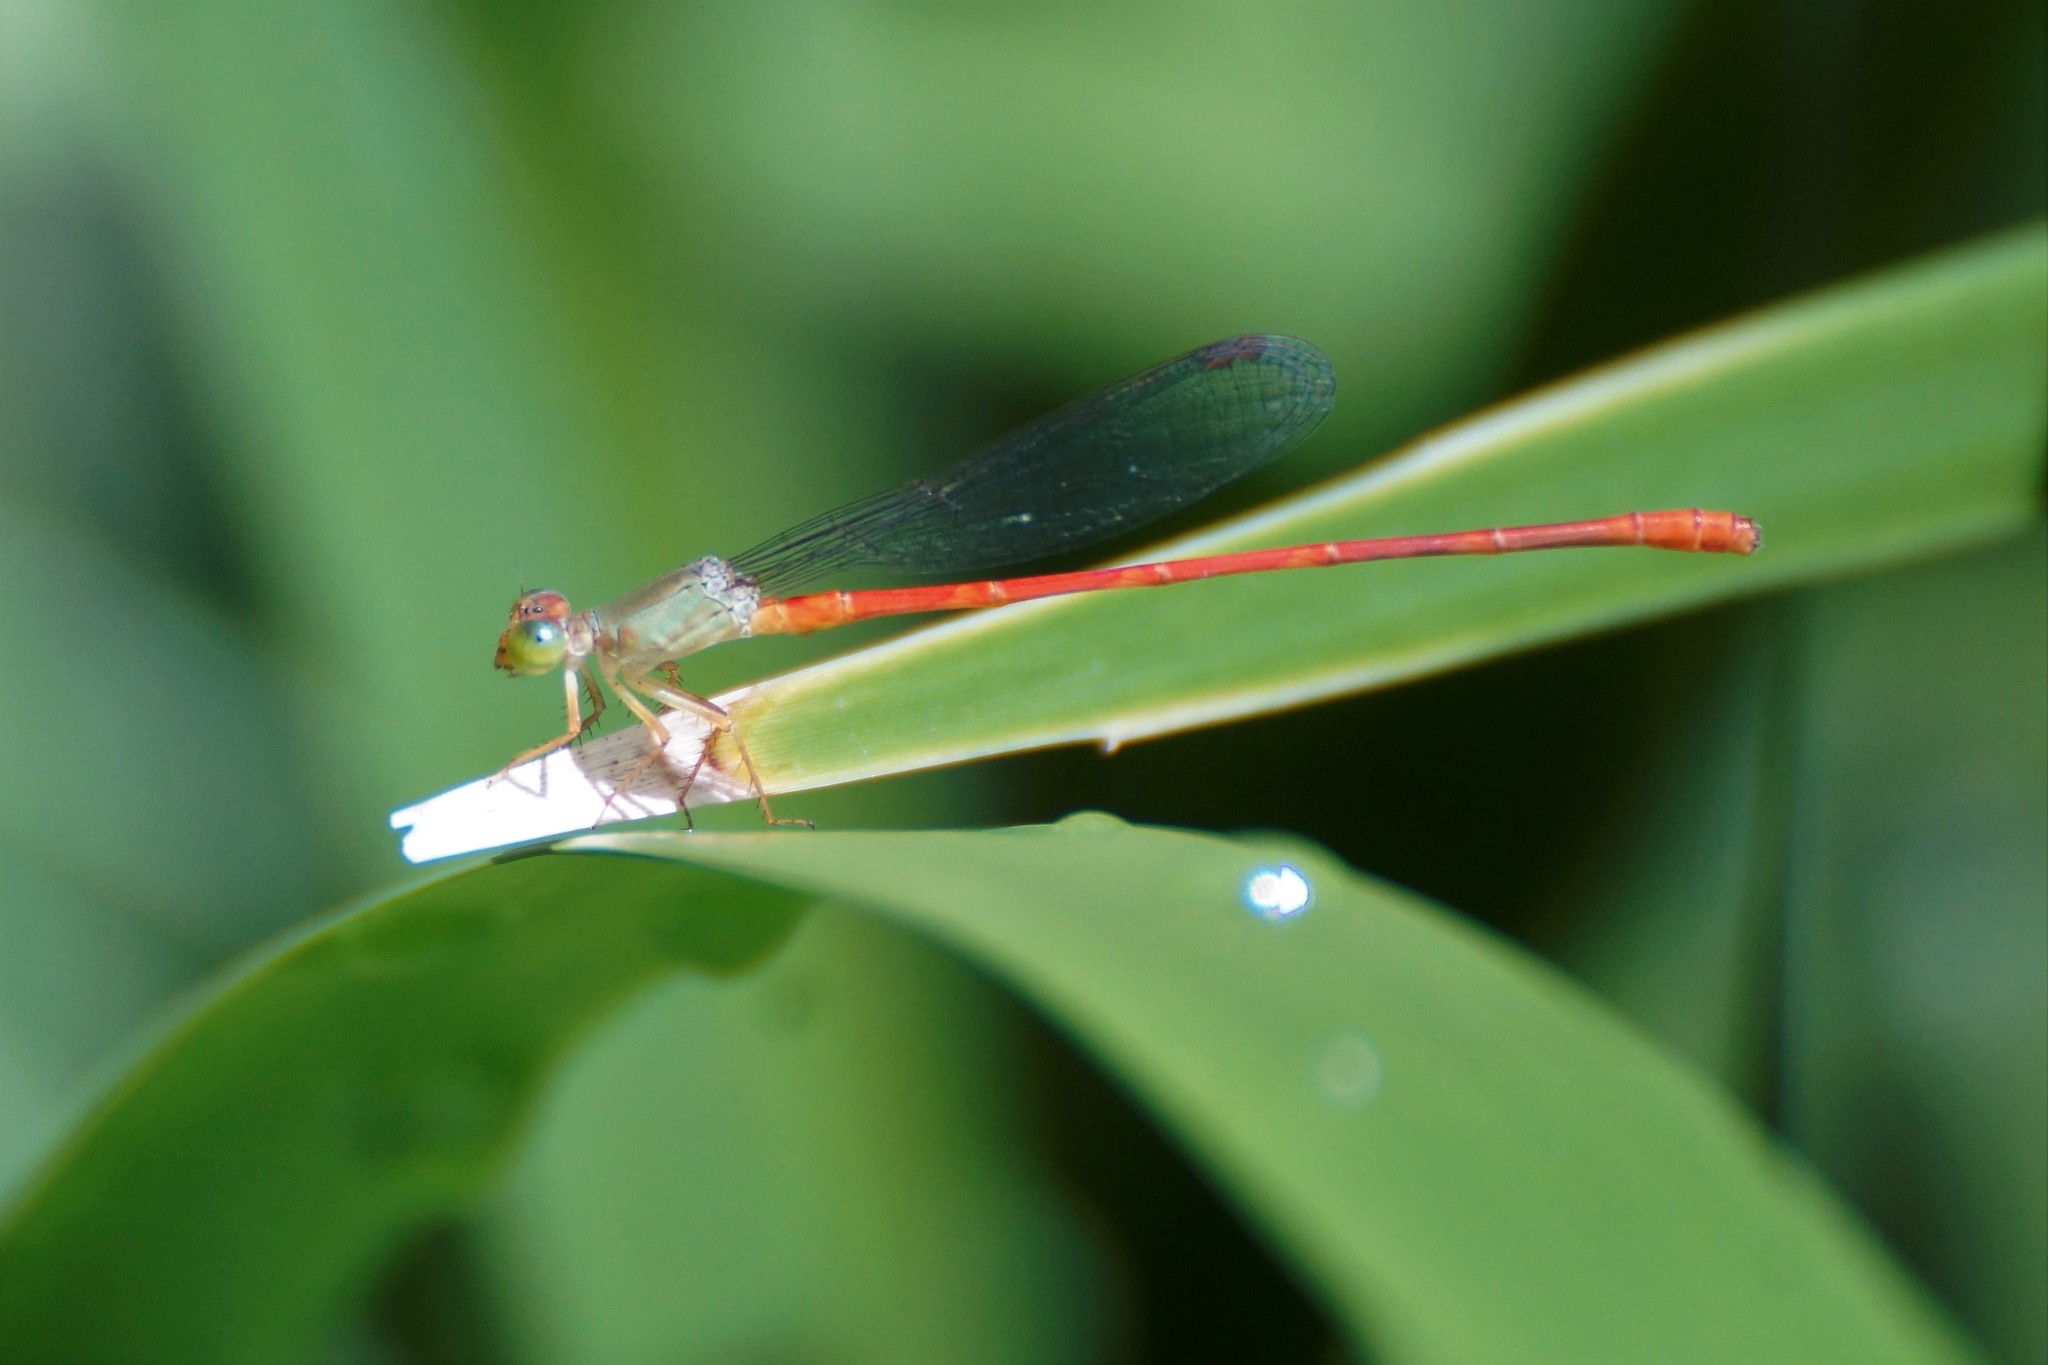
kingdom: Animalia
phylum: Arthropoda
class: Insecta
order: Odonata
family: Coenagrionidae
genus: Ceriagrion
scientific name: Ceriagrion aeruginosum
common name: Redtail
